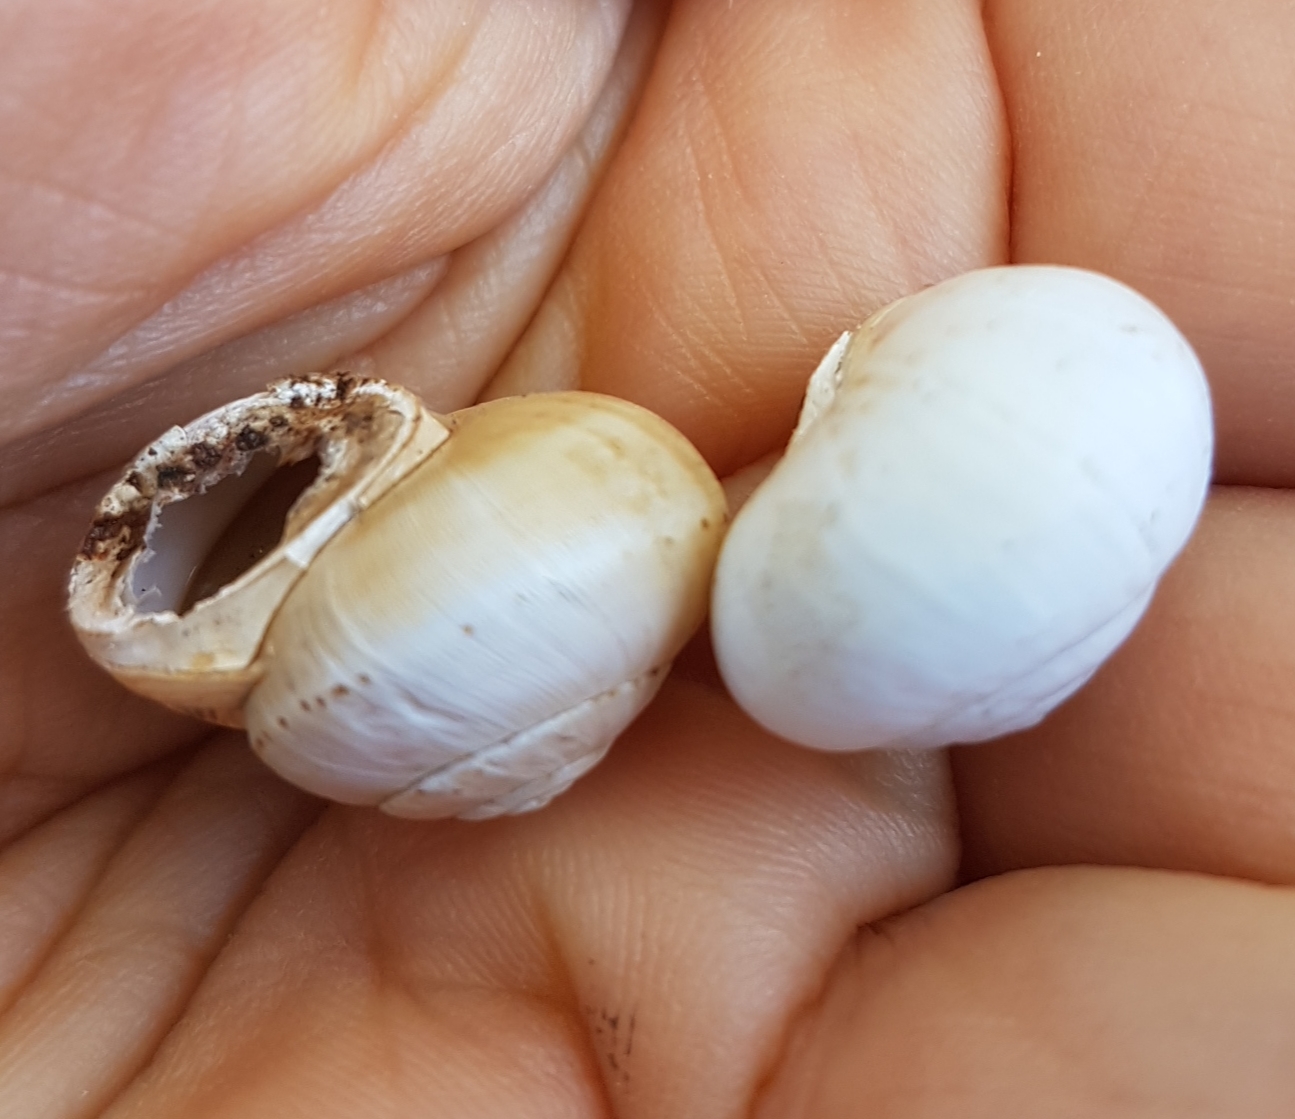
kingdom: Animalia
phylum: Mollusca
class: Gastropoda
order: Stylommatophora
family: Helicidae
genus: Theba
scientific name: Theba pisana
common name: White snail
